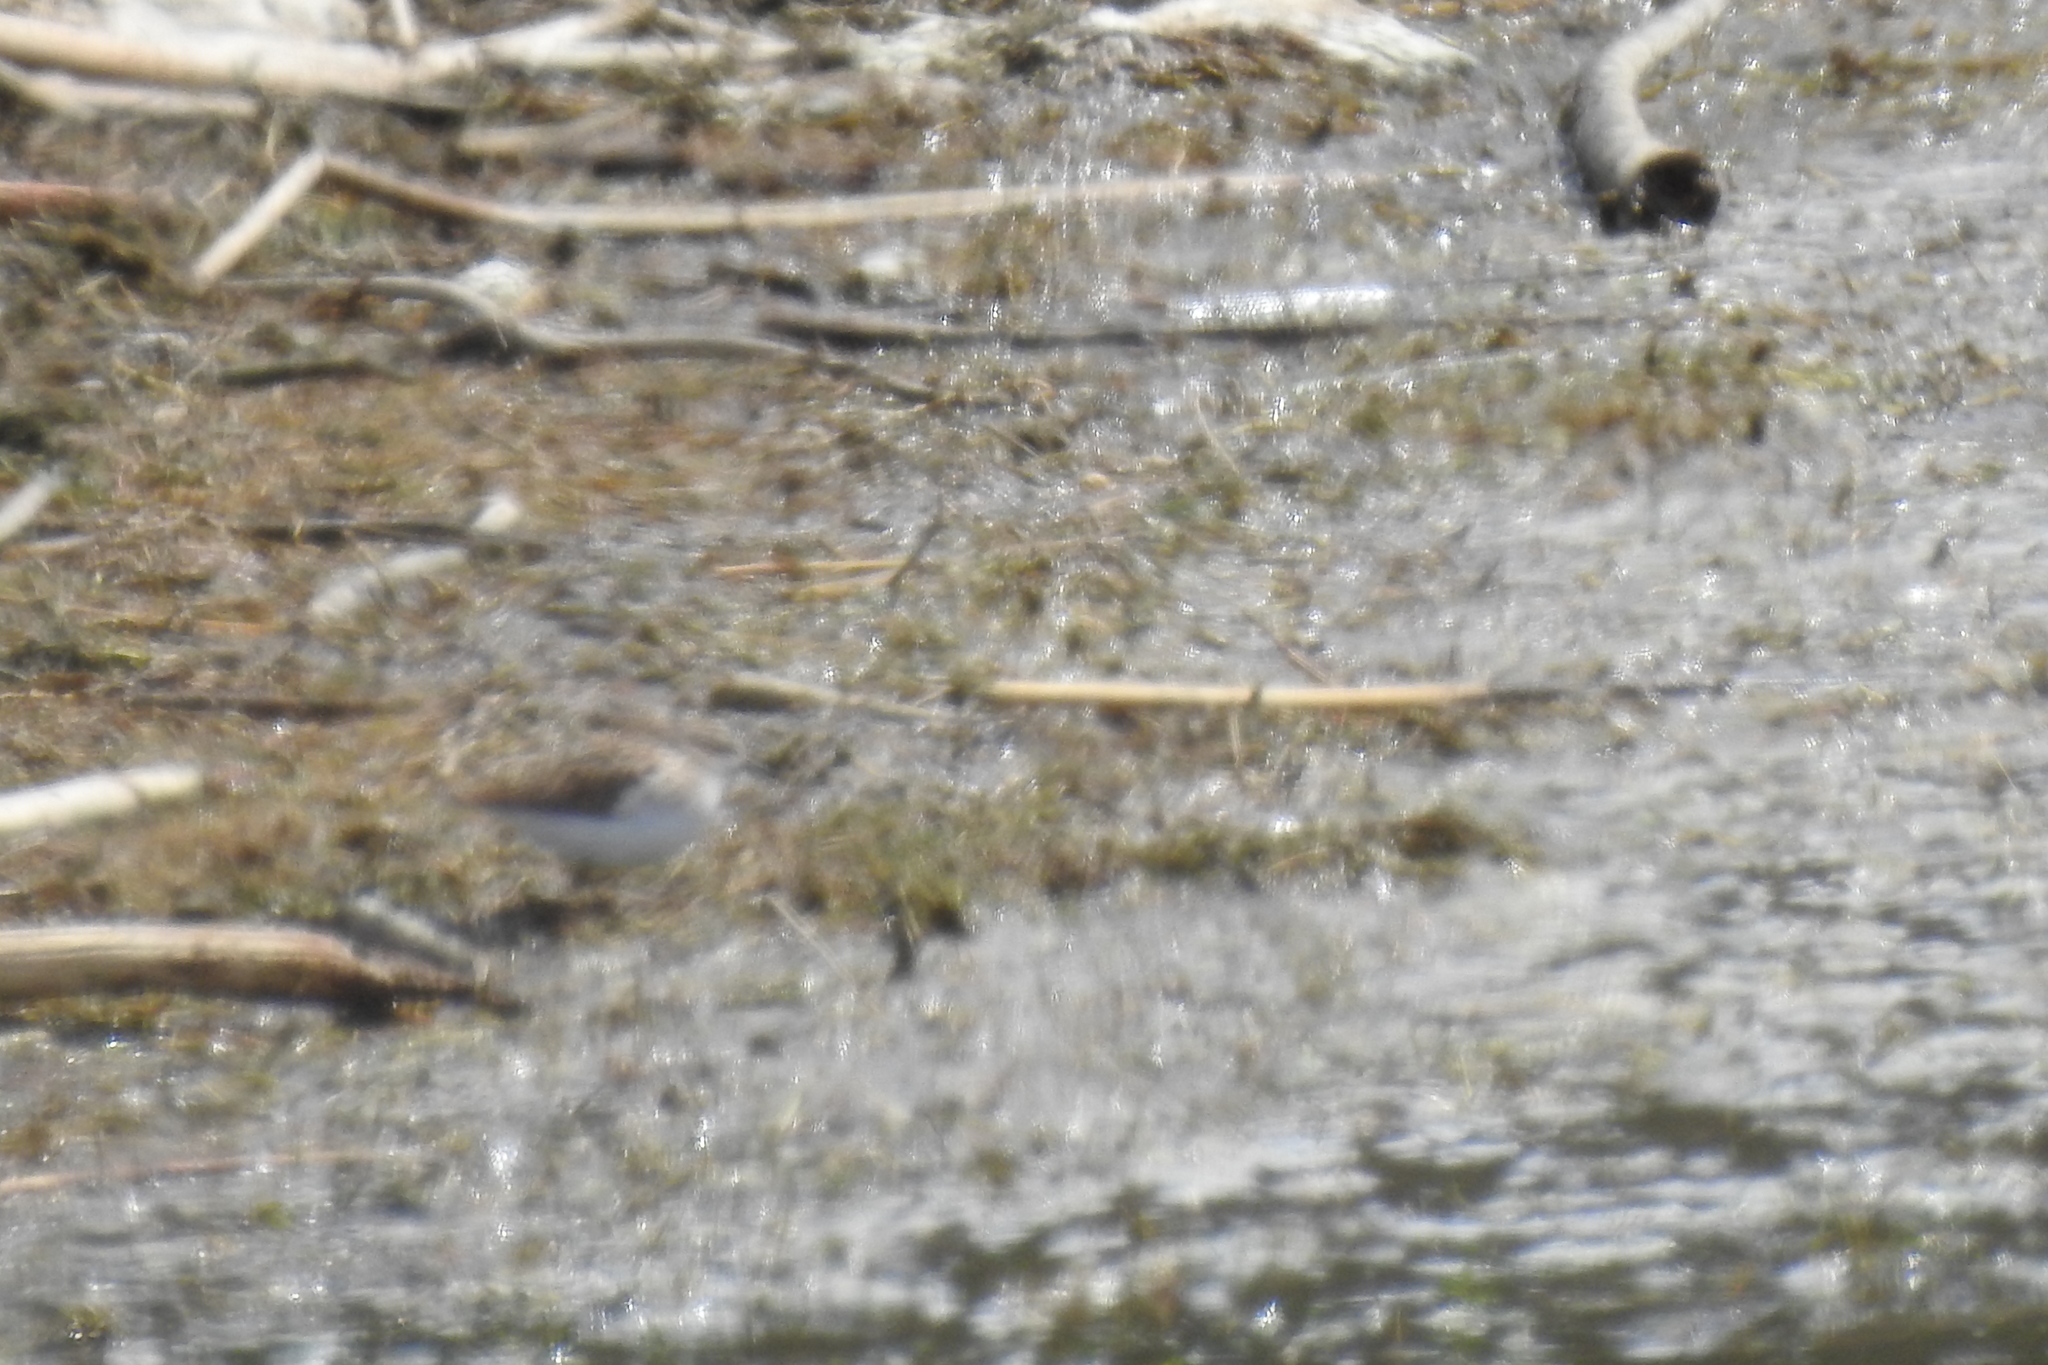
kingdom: Animalia
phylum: Chordata
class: Aves
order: Charadriiformes
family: Scolopacidae
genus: Calidris
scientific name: Calidris minutilla
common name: Least sandpiper
